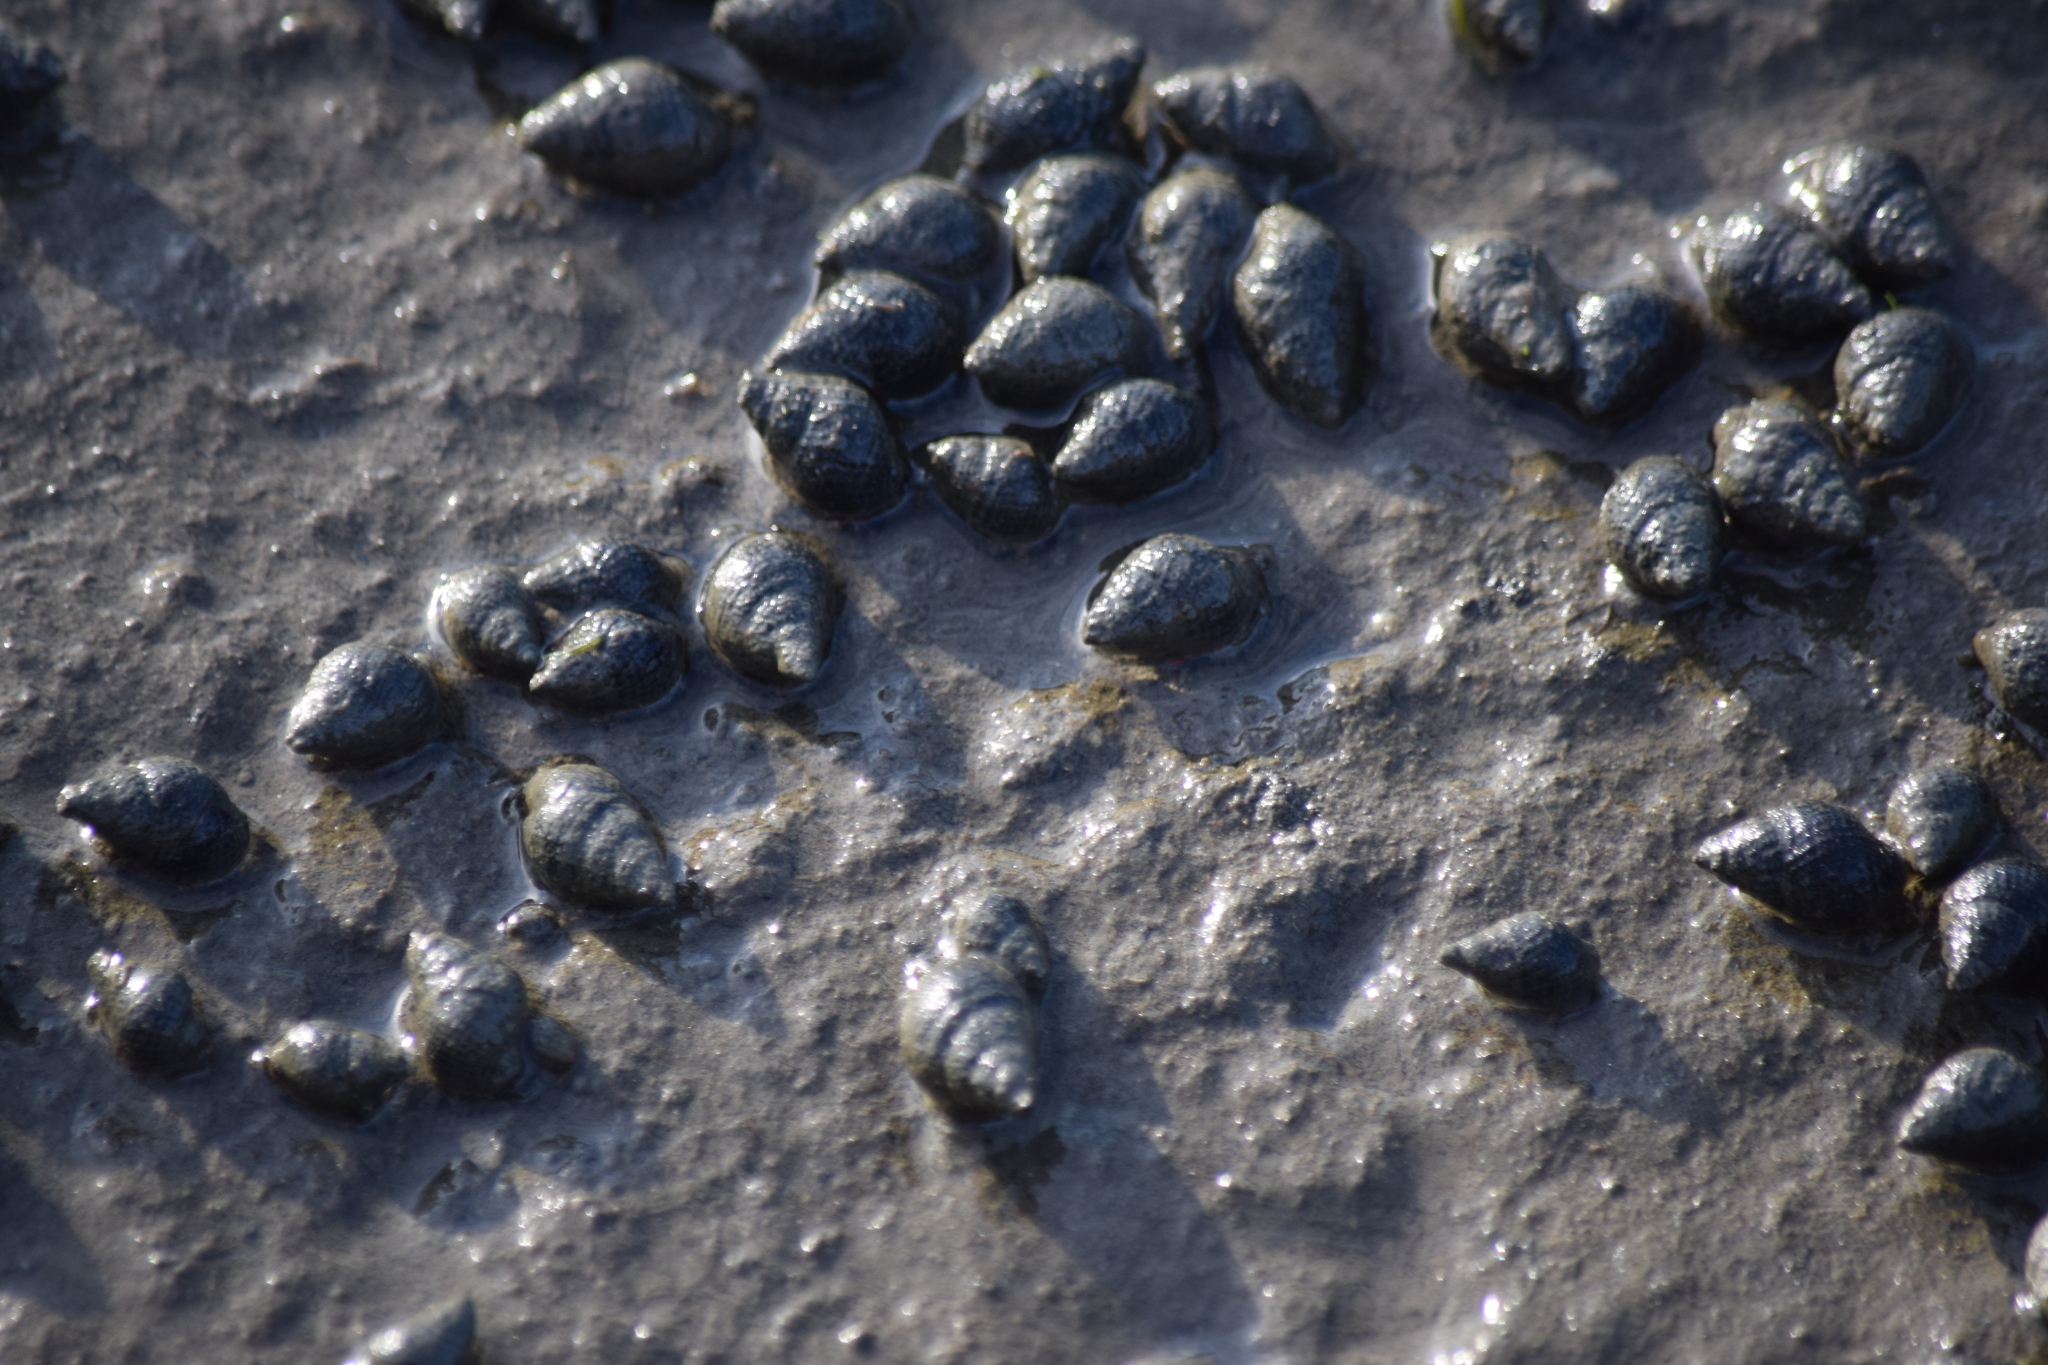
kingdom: Animalia
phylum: Mollusca
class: Gastropoda
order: Neogastropoda
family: Nassariidae
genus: Ilyanassa
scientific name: Ilyanassa obsoleta
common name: Eastern mudsnail
